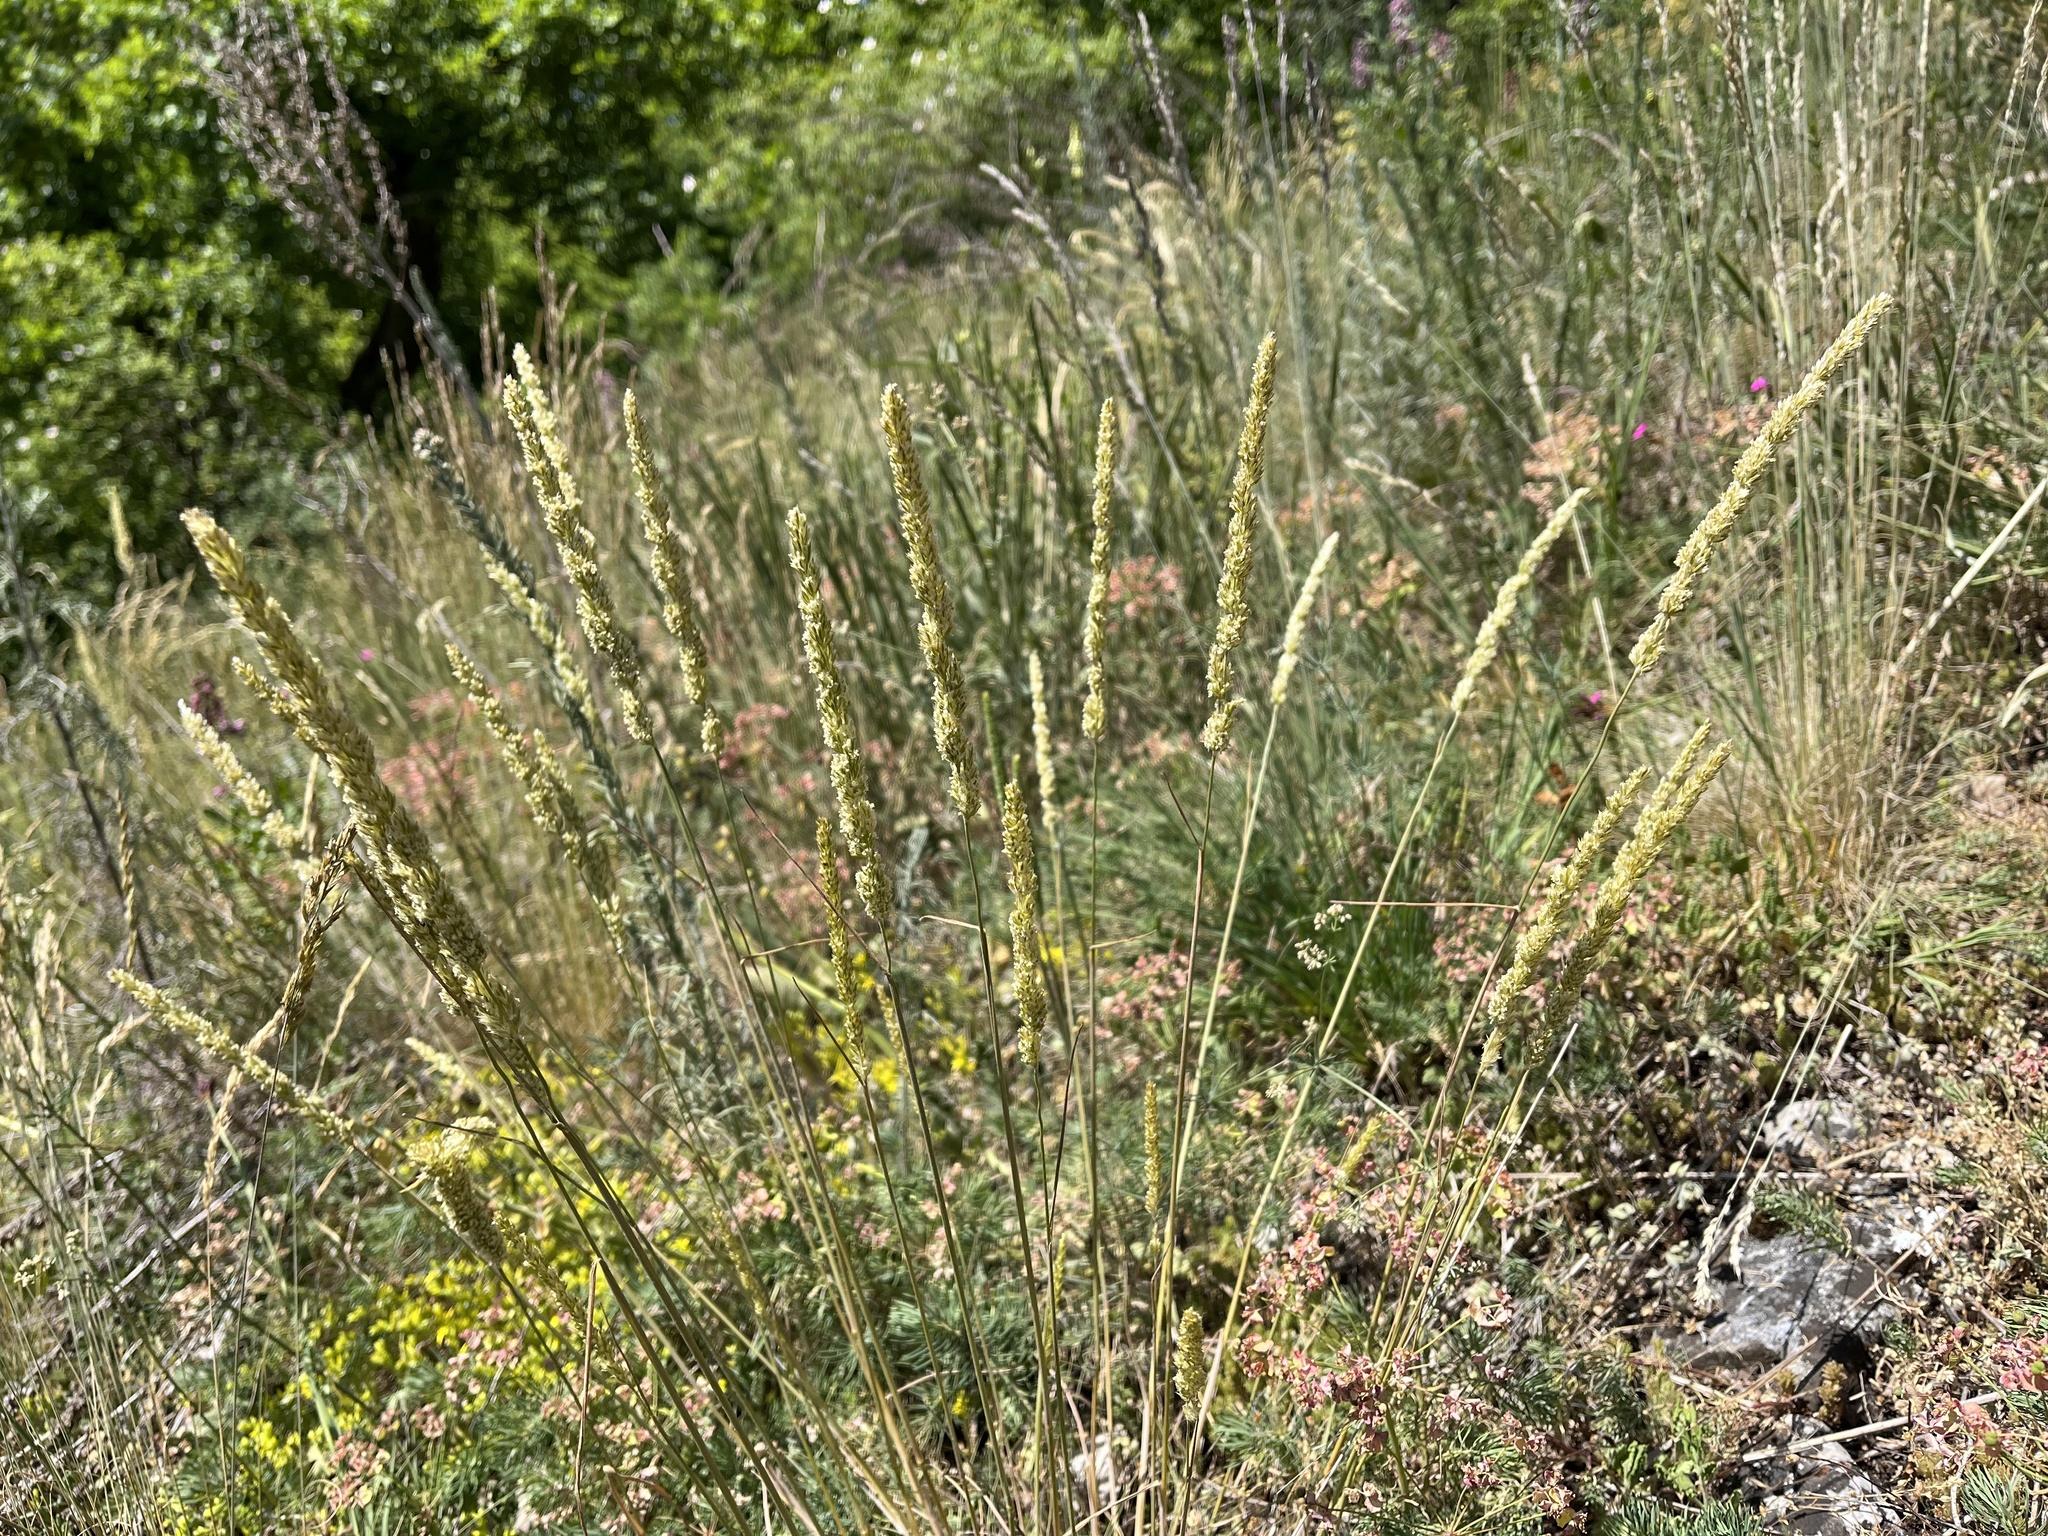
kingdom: Plantae
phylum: Tracheophyta
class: Liliopsida
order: Poales
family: Poaceae
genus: Koeleria
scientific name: Koeleria macrantha
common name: Crested hair-grass
